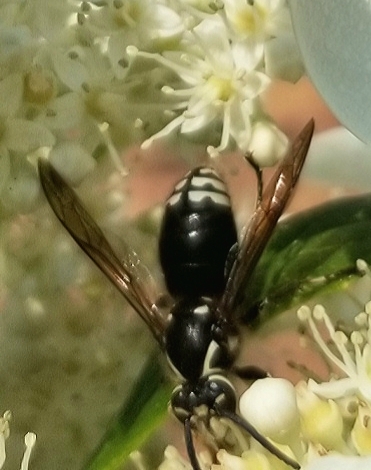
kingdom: Animalia
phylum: Arthropoda
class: Insecta
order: Hymenoptera
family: Vespidae
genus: Dolichovespula
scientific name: Dolichovespula maculata
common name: Bald-faced hornet
